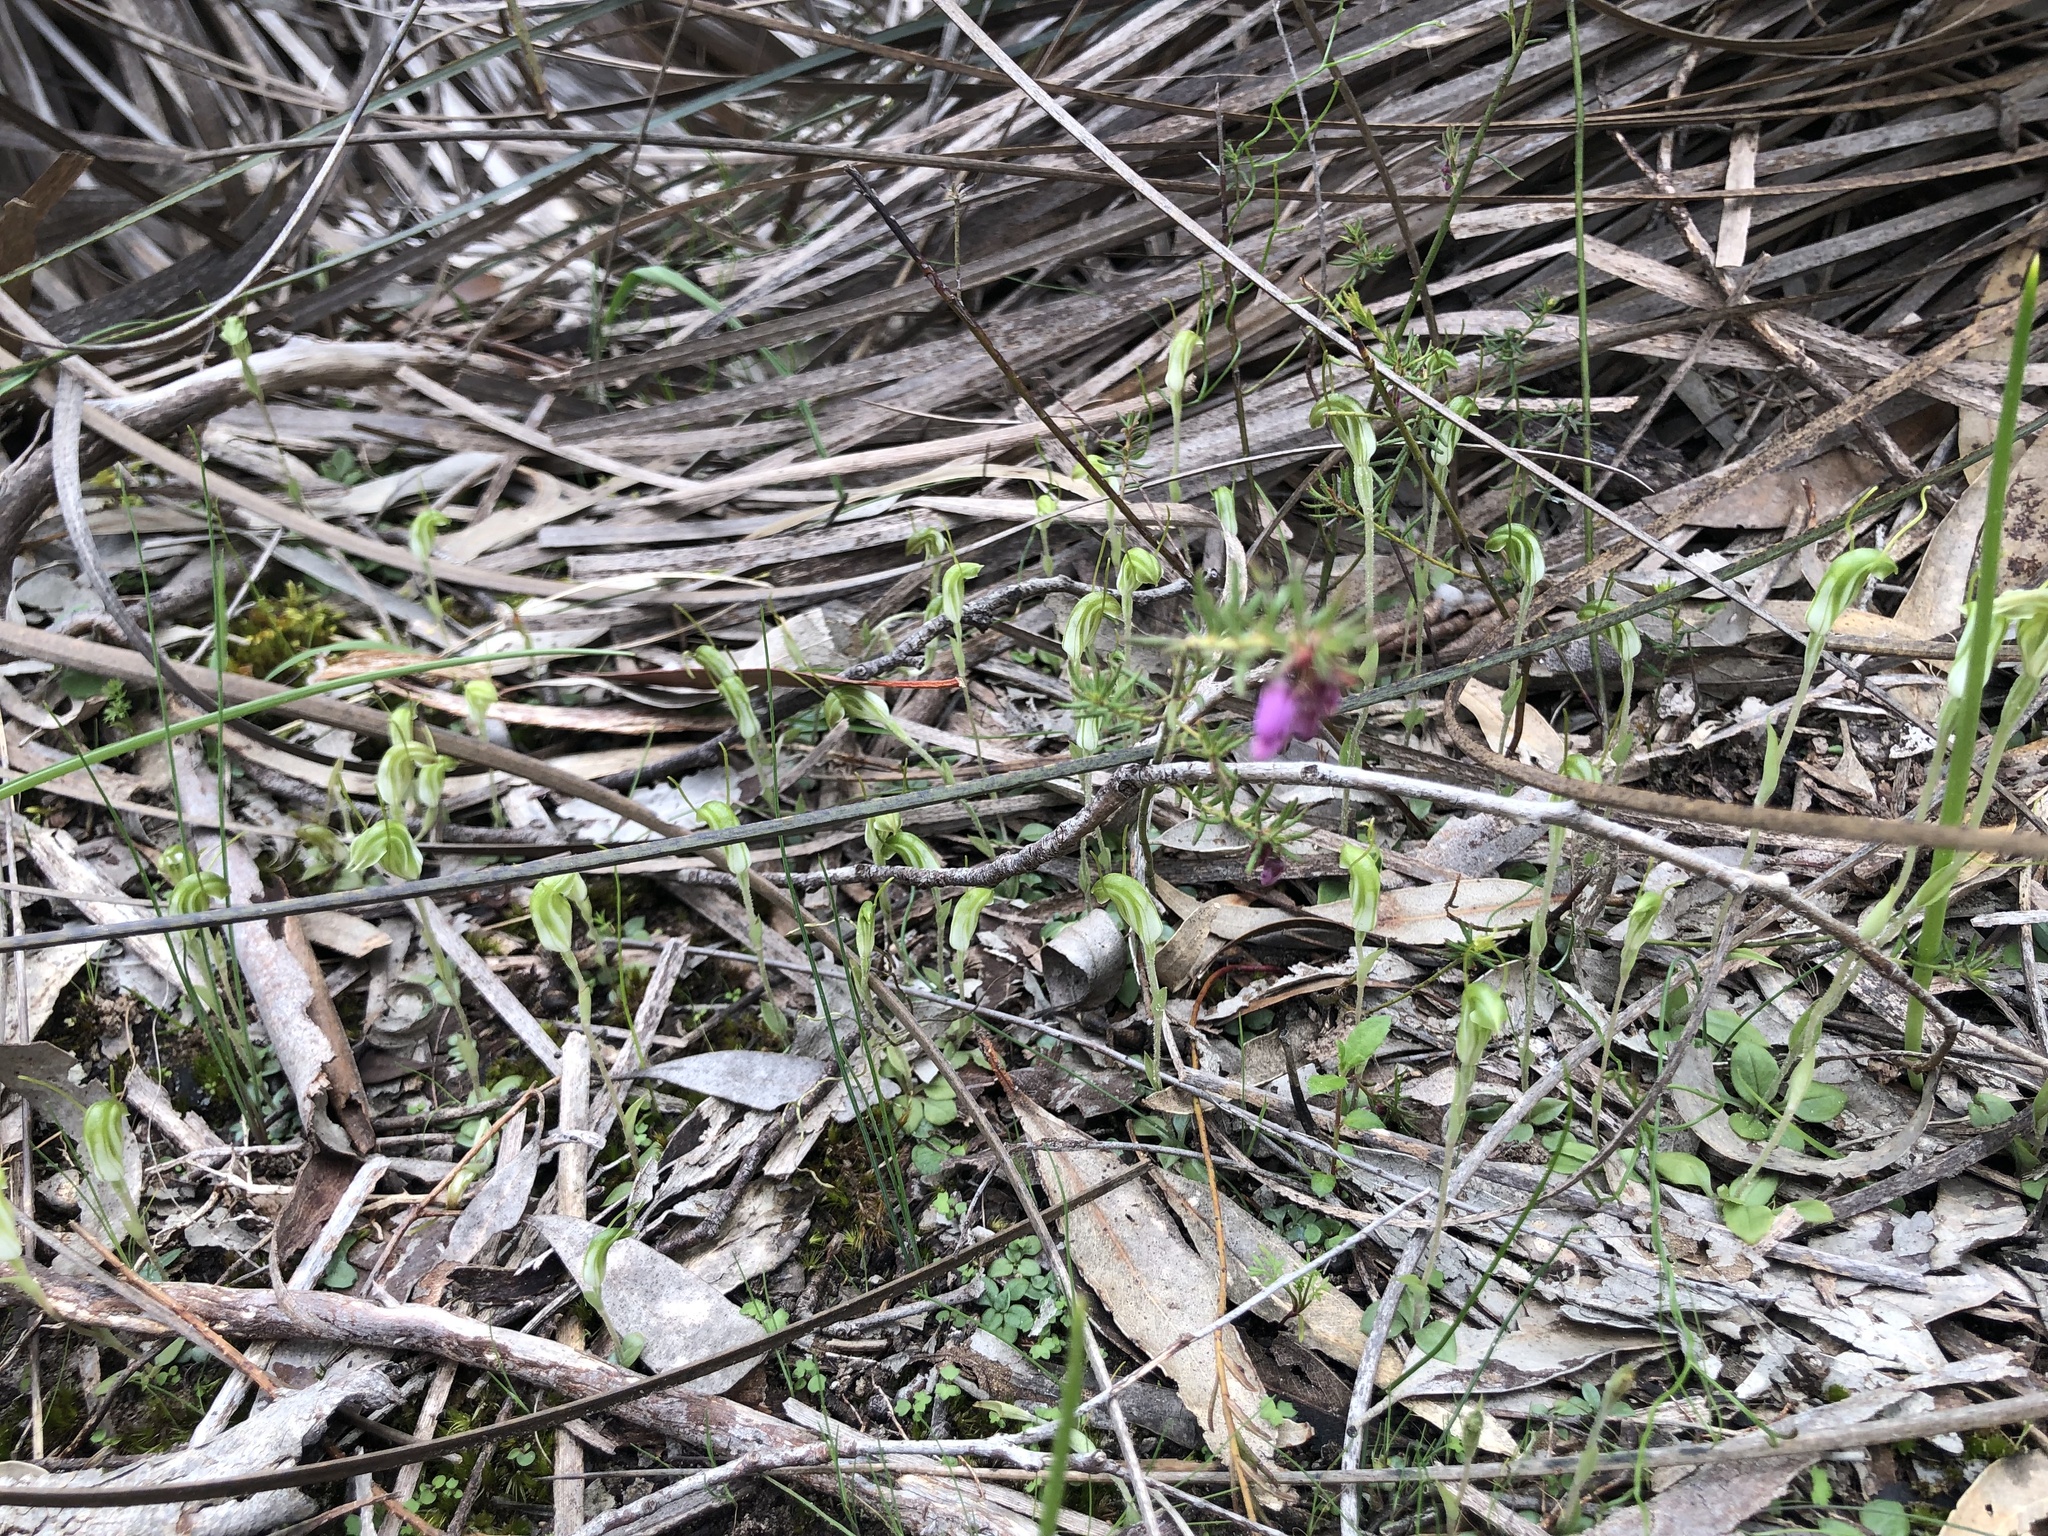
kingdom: Plantae
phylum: Tracheophyta
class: Liliopsida
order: Asparagales
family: Orchidaceae
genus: Pterostylis
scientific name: Pterostylis nana
